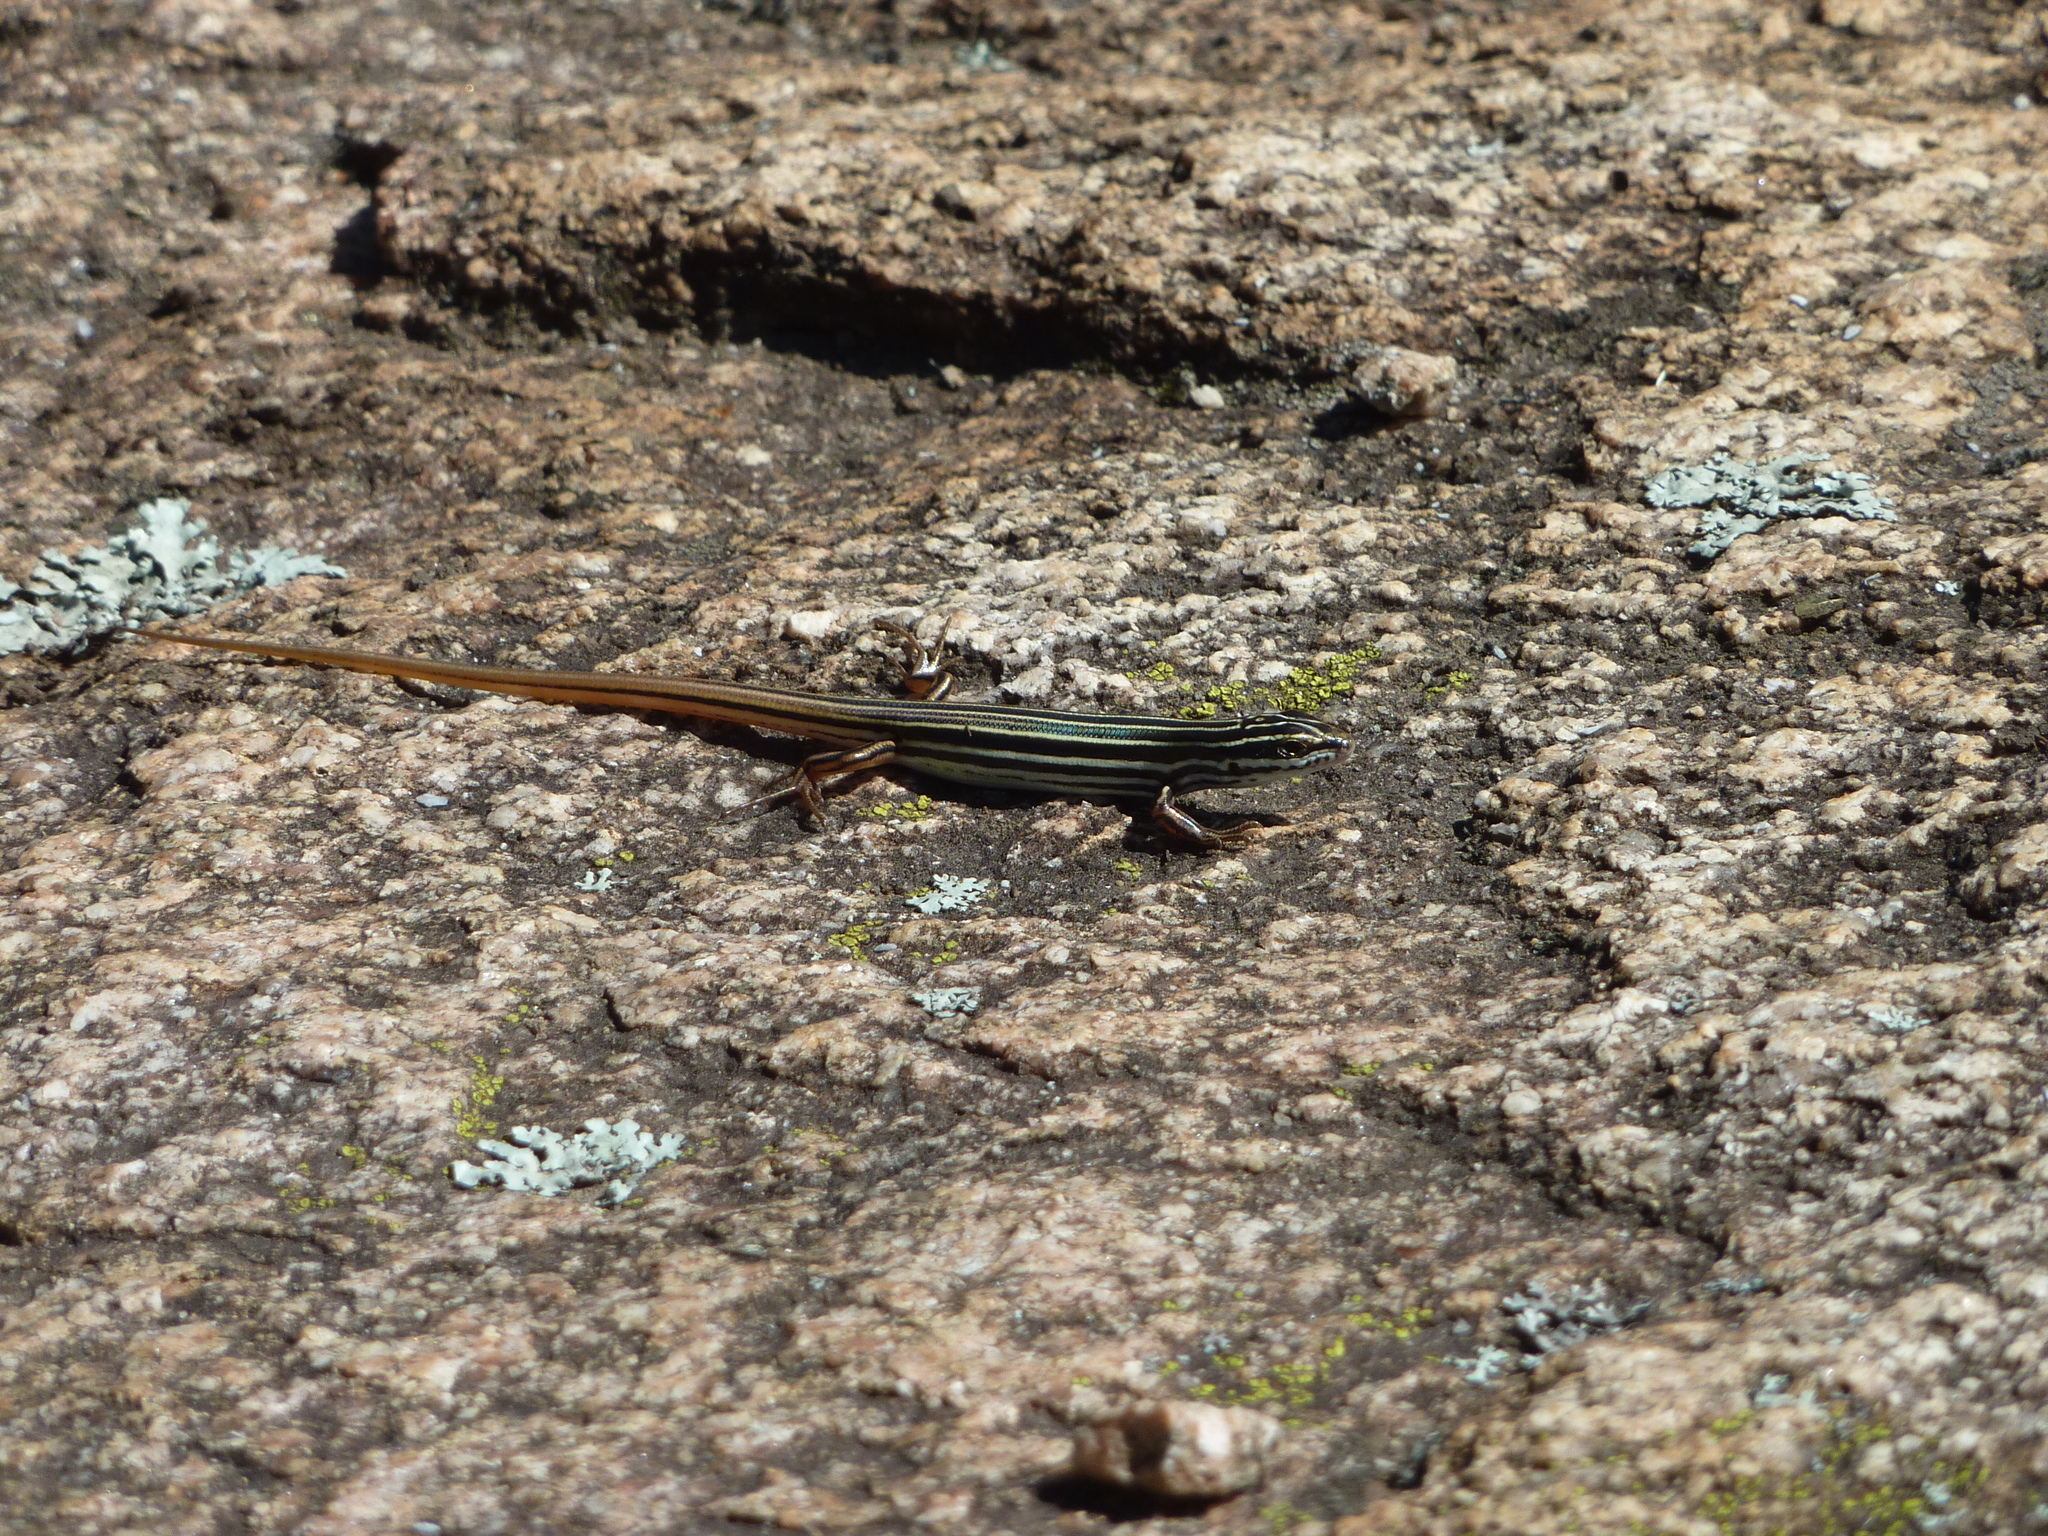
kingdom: Animalia
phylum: Chordata
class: Squamata
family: Scincidae
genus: Ctenotus
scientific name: Ctenotus taeniolatus
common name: Copper-tailed skink
